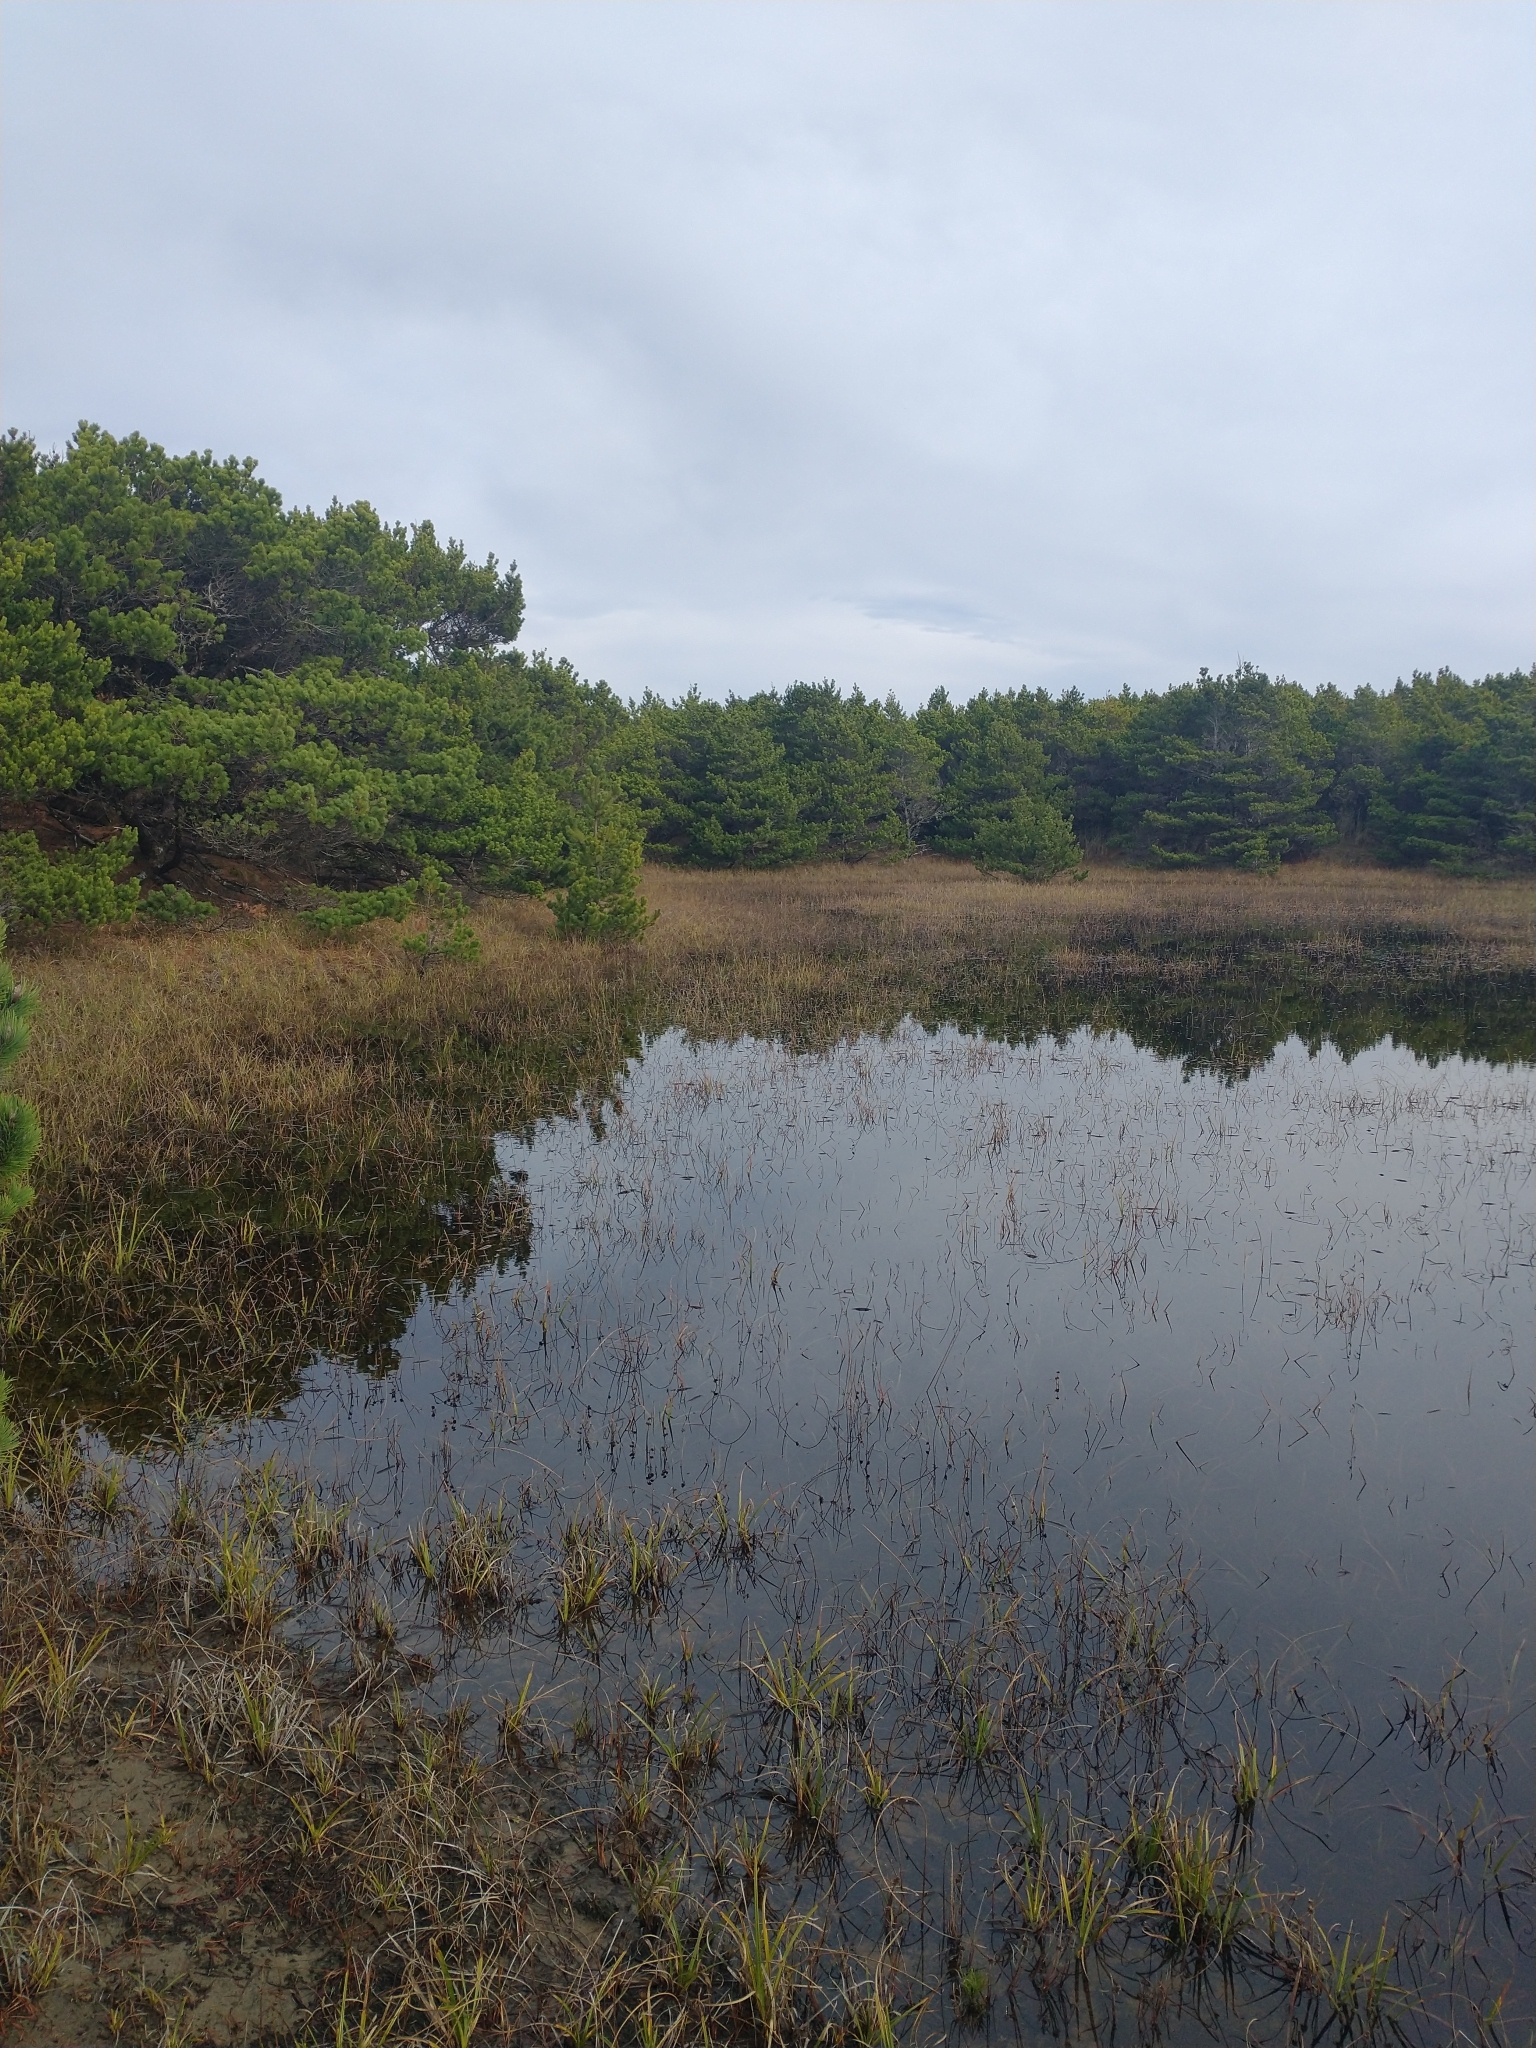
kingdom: Plantae
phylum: Tracheophyta
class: Pinopsida
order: Pinales
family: Pinaceae
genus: Pinus
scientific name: Pinus contorta
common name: Lodgepole pine
